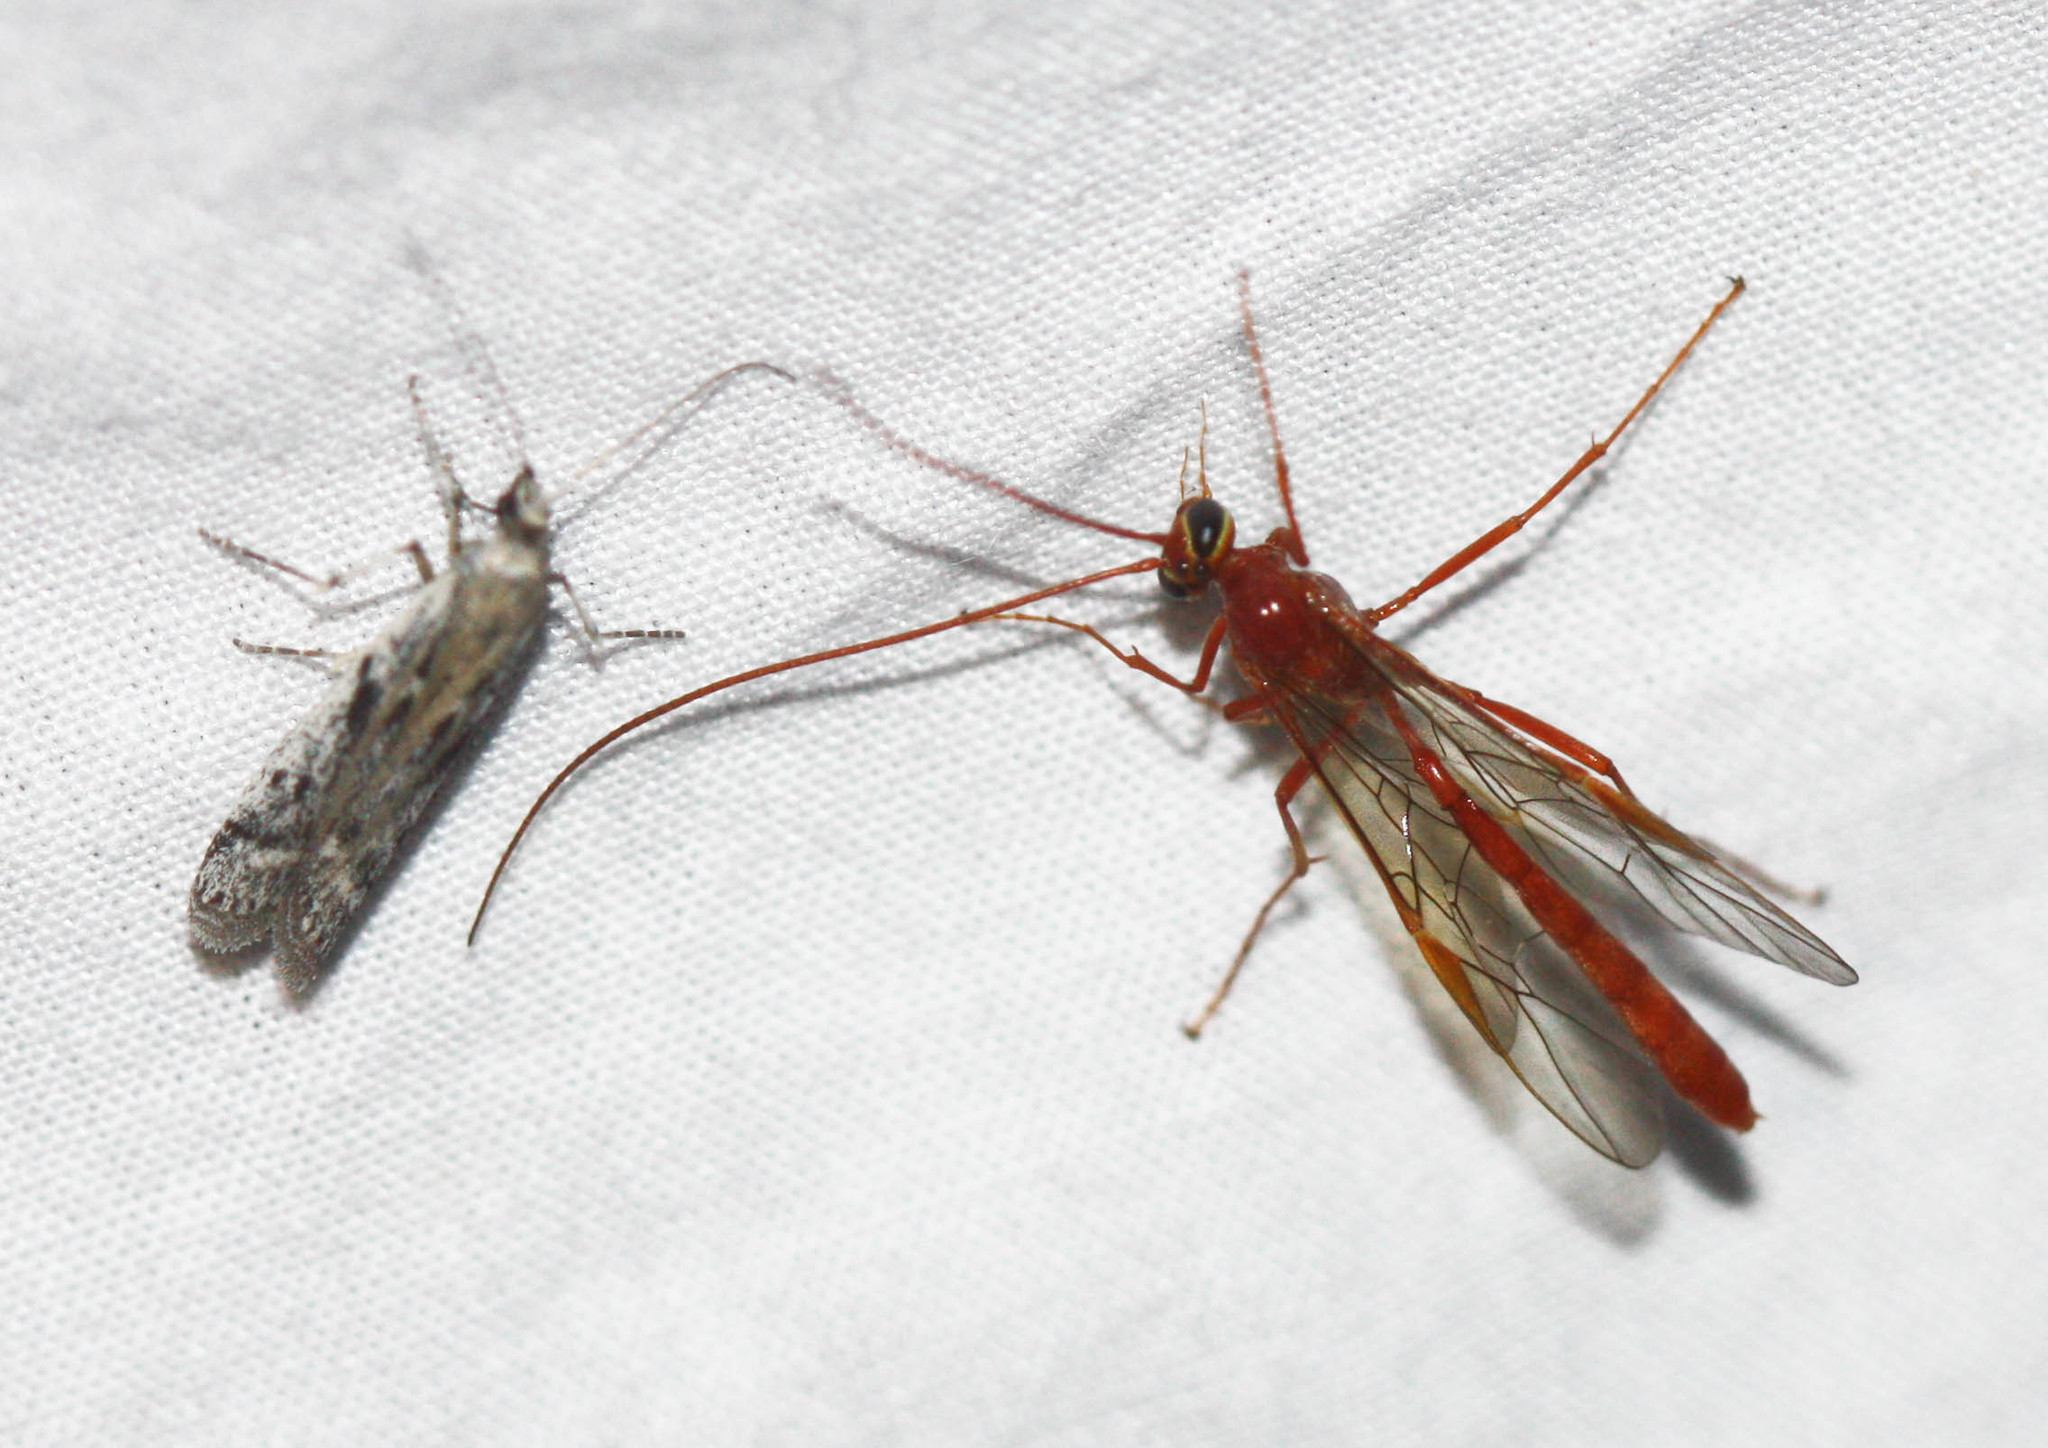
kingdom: Animalia
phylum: Arthropoda
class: Insecta
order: Hymenoptera
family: Ichneumonidae
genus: Ophion
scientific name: Ophion
